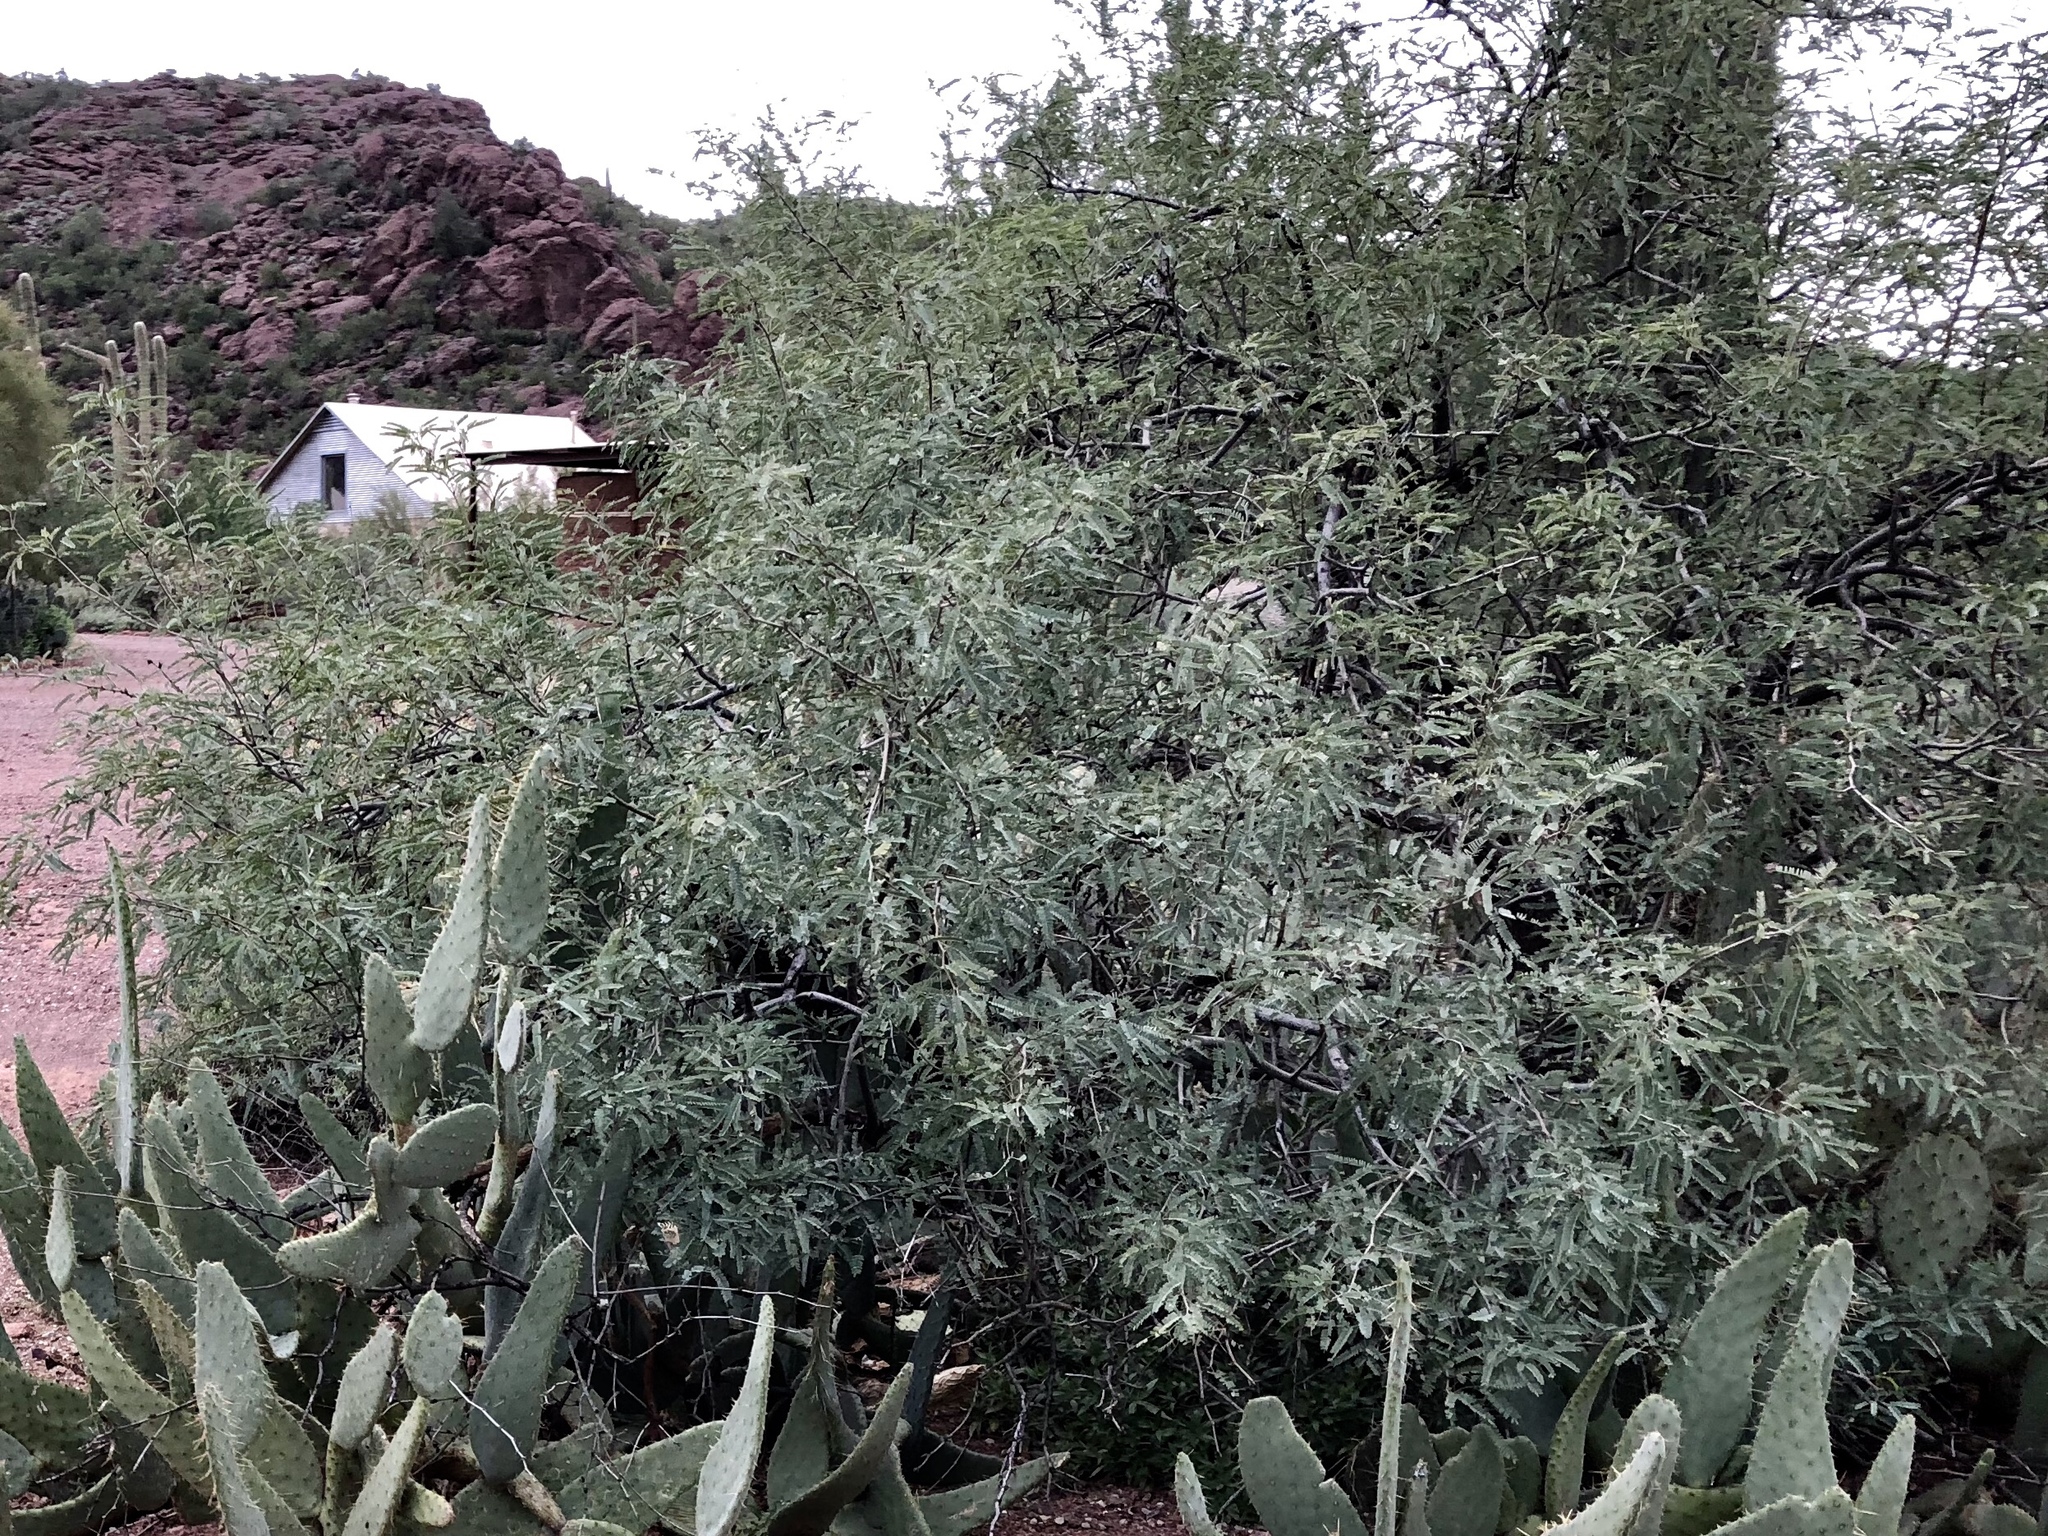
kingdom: Plantae
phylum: Tracheophyta
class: Magnoliopsida
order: Fabales
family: Fabaceae
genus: Prosopis
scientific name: Prosopis velutina
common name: Velvet mesquite
